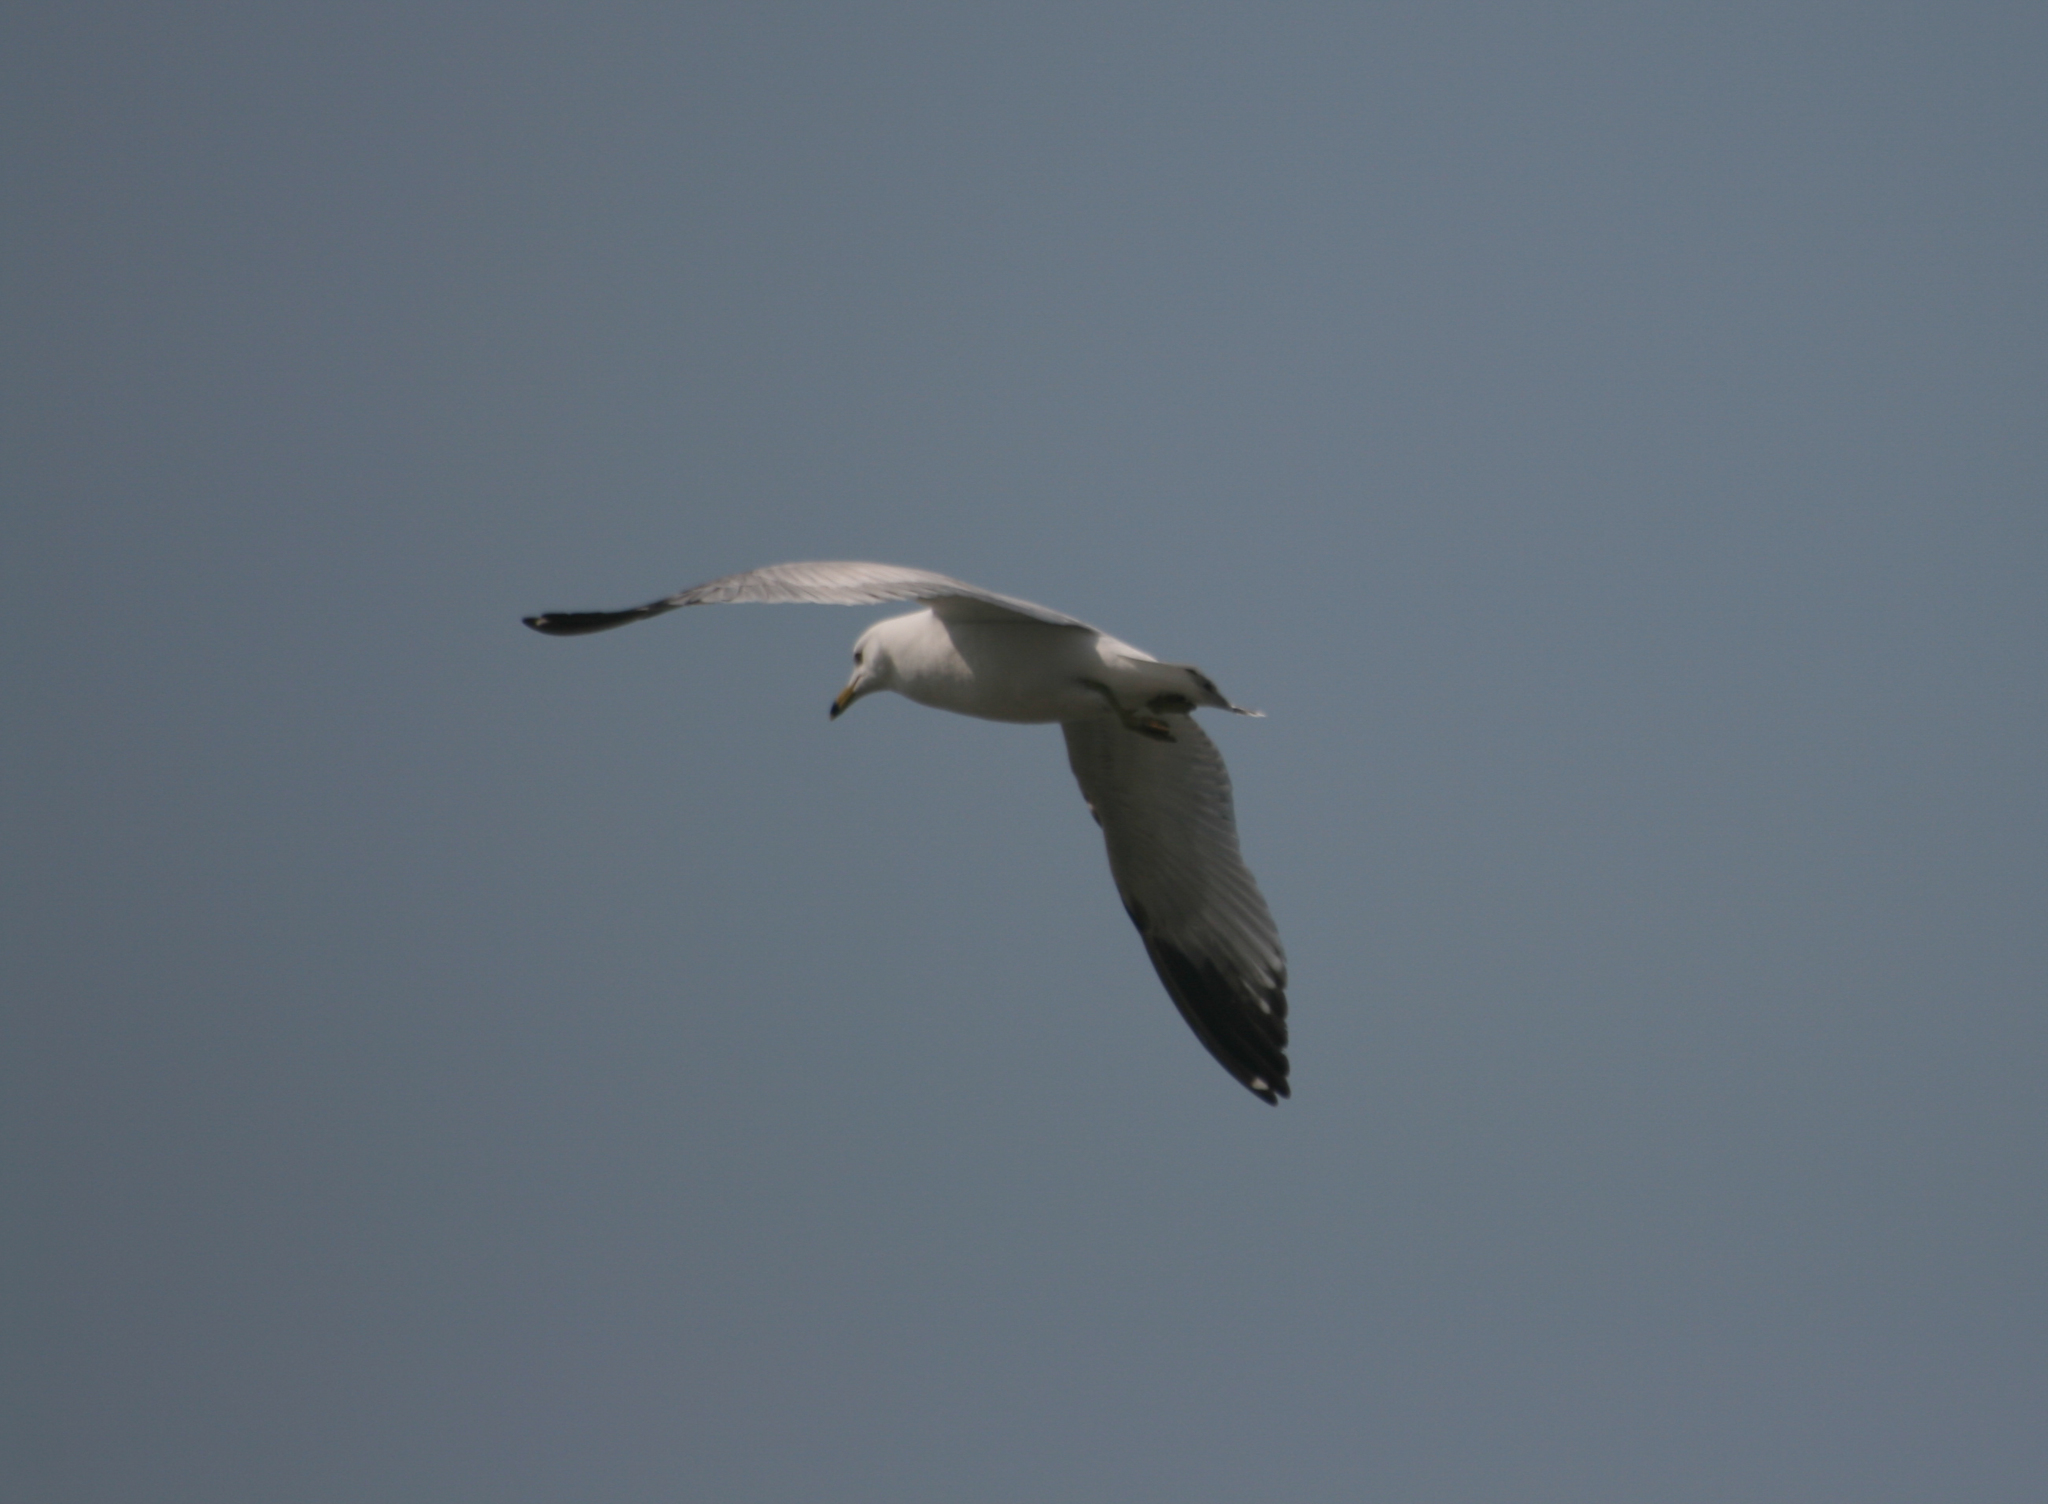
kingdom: Animalia
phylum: Chordata
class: Aves
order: Charadriiformes
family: Laridae
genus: Larus
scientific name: Larus delawarensis
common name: Ring-billed gull
